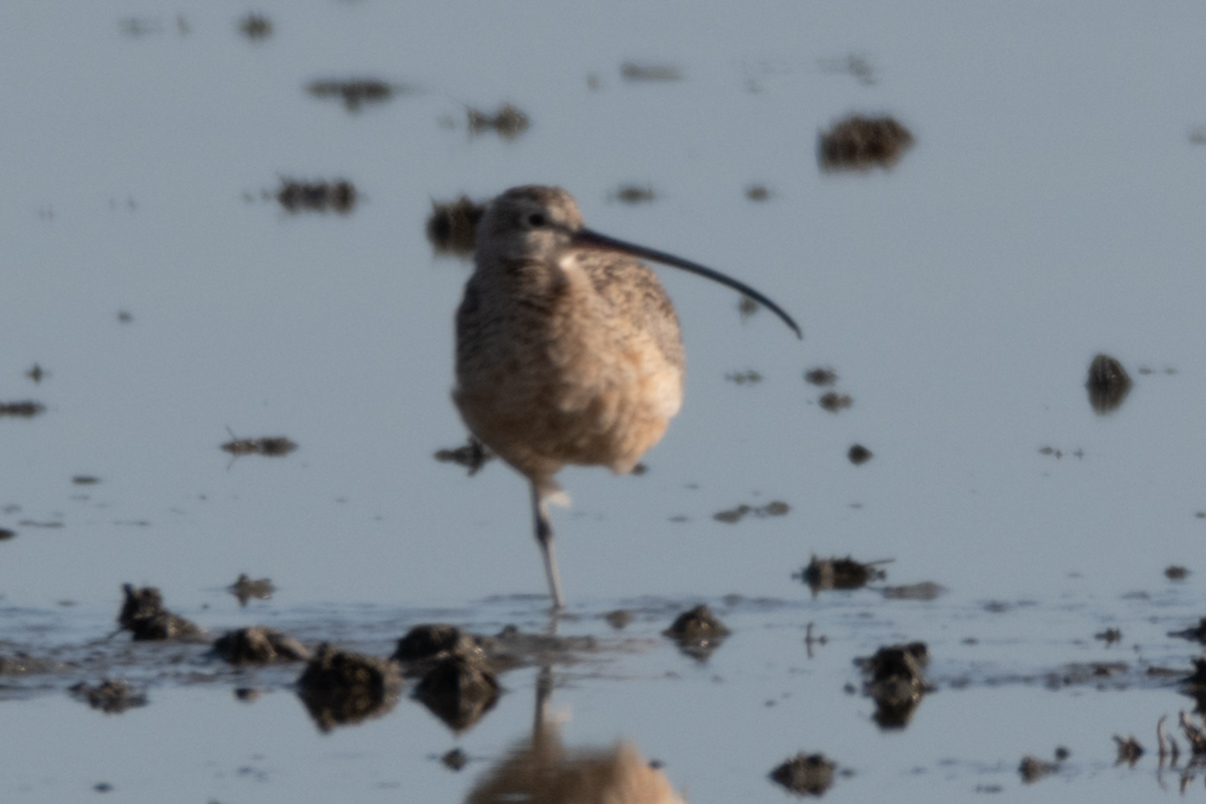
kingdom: Animalia
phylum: Chordata
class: Aves
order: Charadriiformes
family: Scolopacidae
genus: Numenius
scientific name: Numenius americanus
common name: Long-billed curlew
